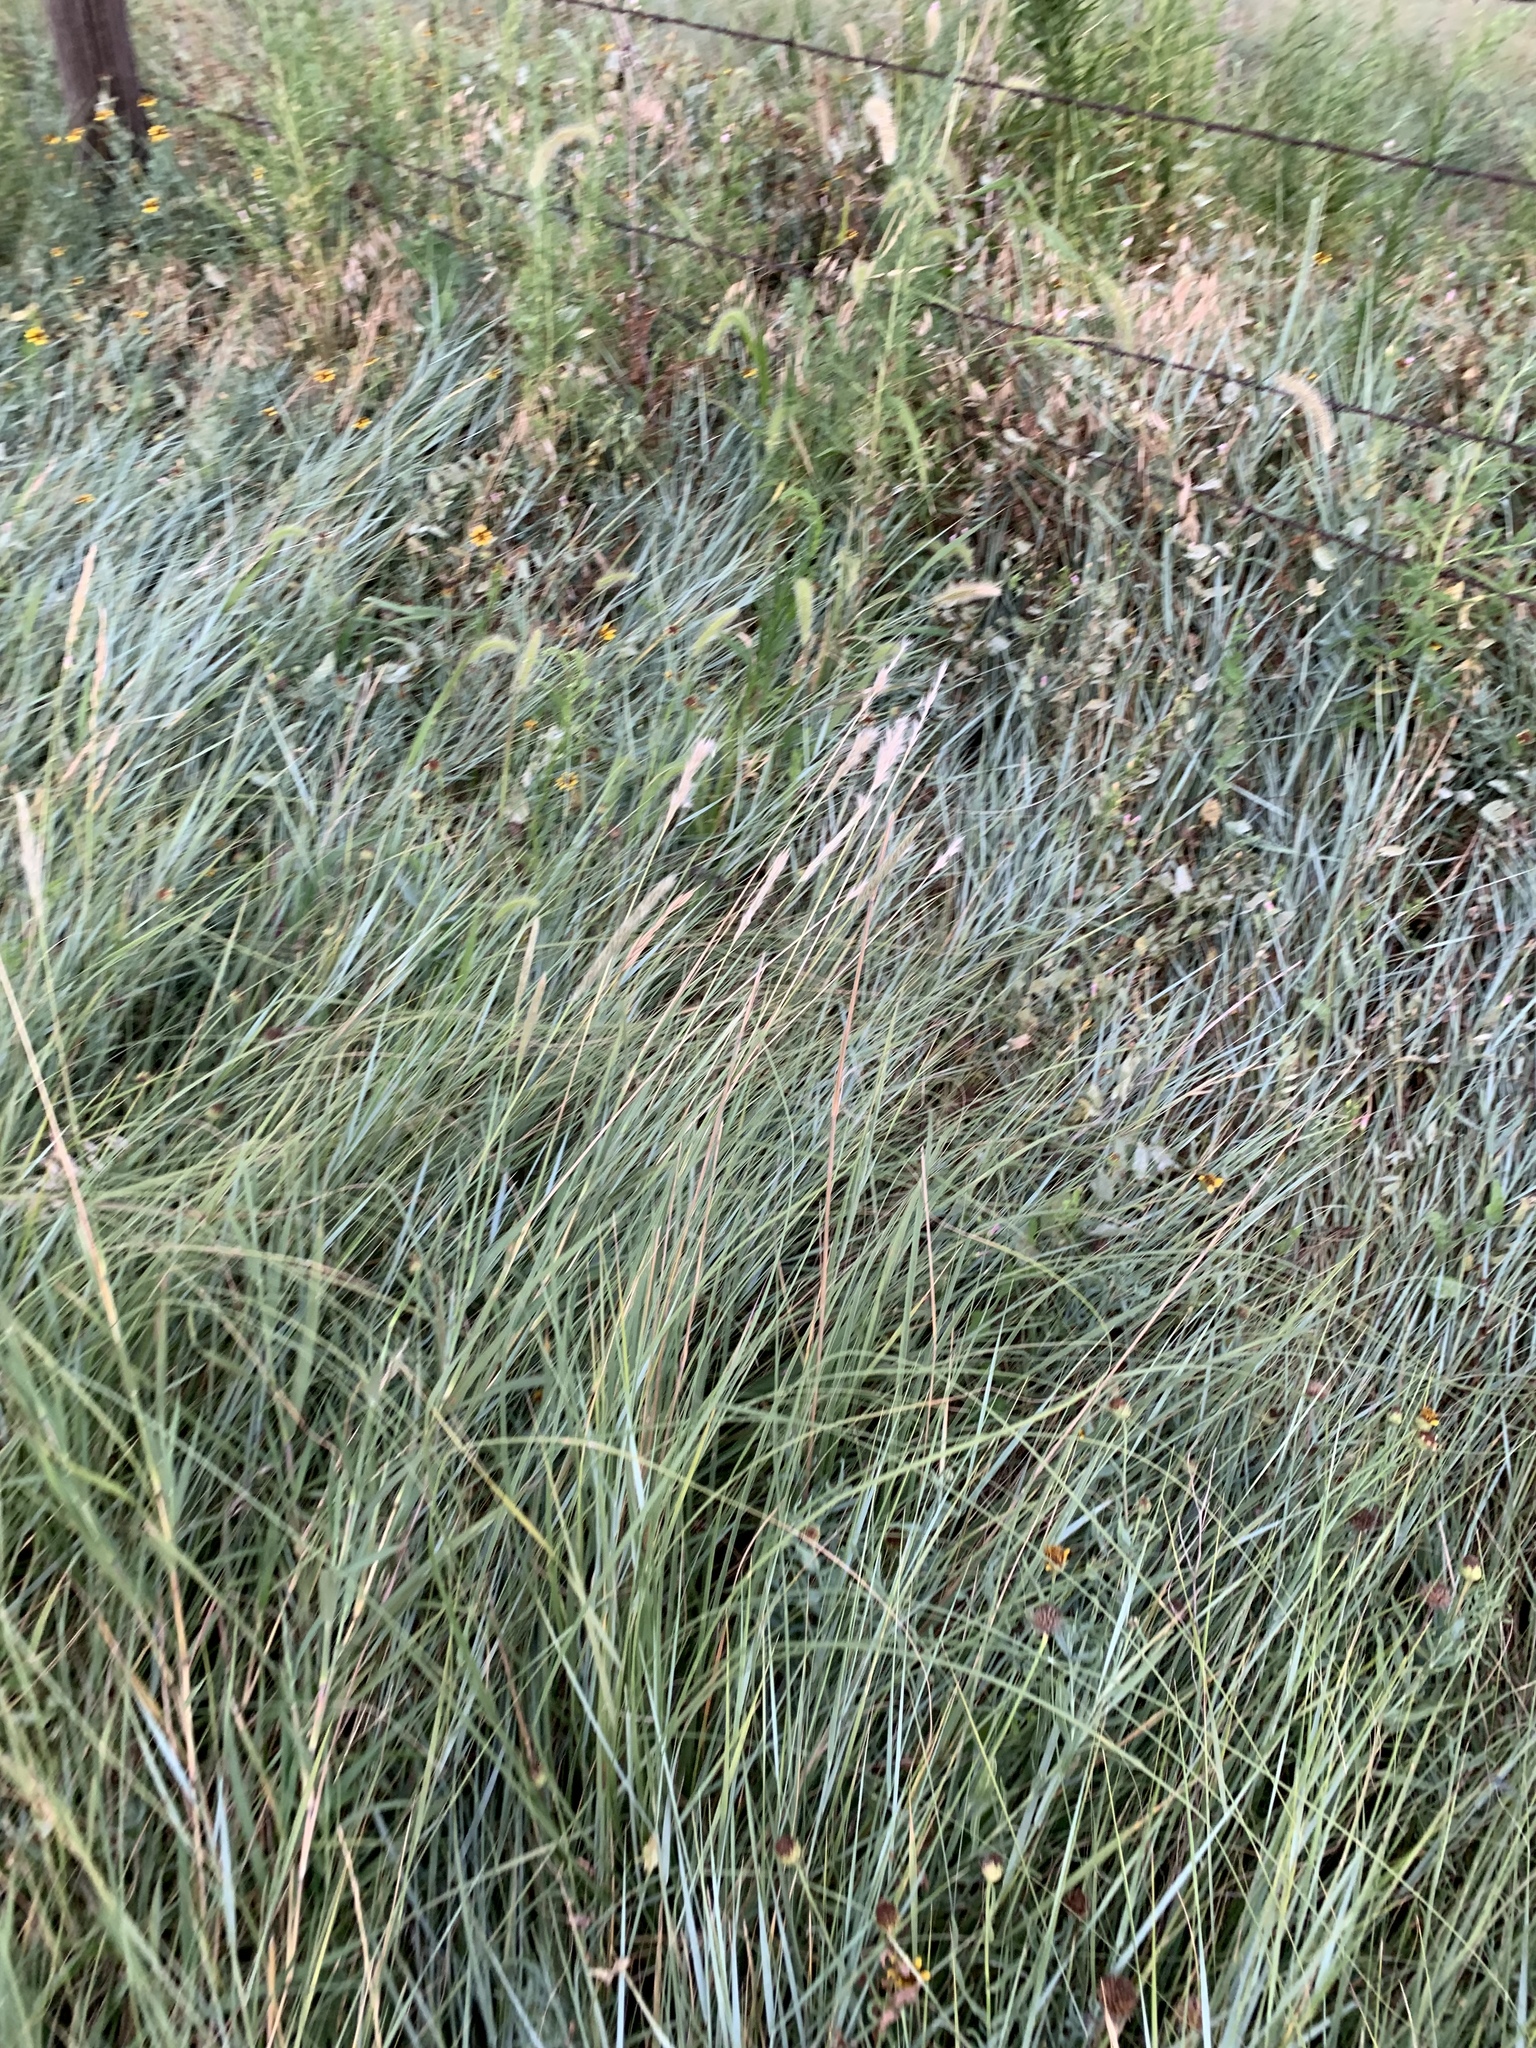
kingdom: Plantae
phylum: Tracheophyta
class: Liliopsida
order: Poales
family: Poaceae
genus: Bothriochloa
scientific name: Bothriochloa torreyana
